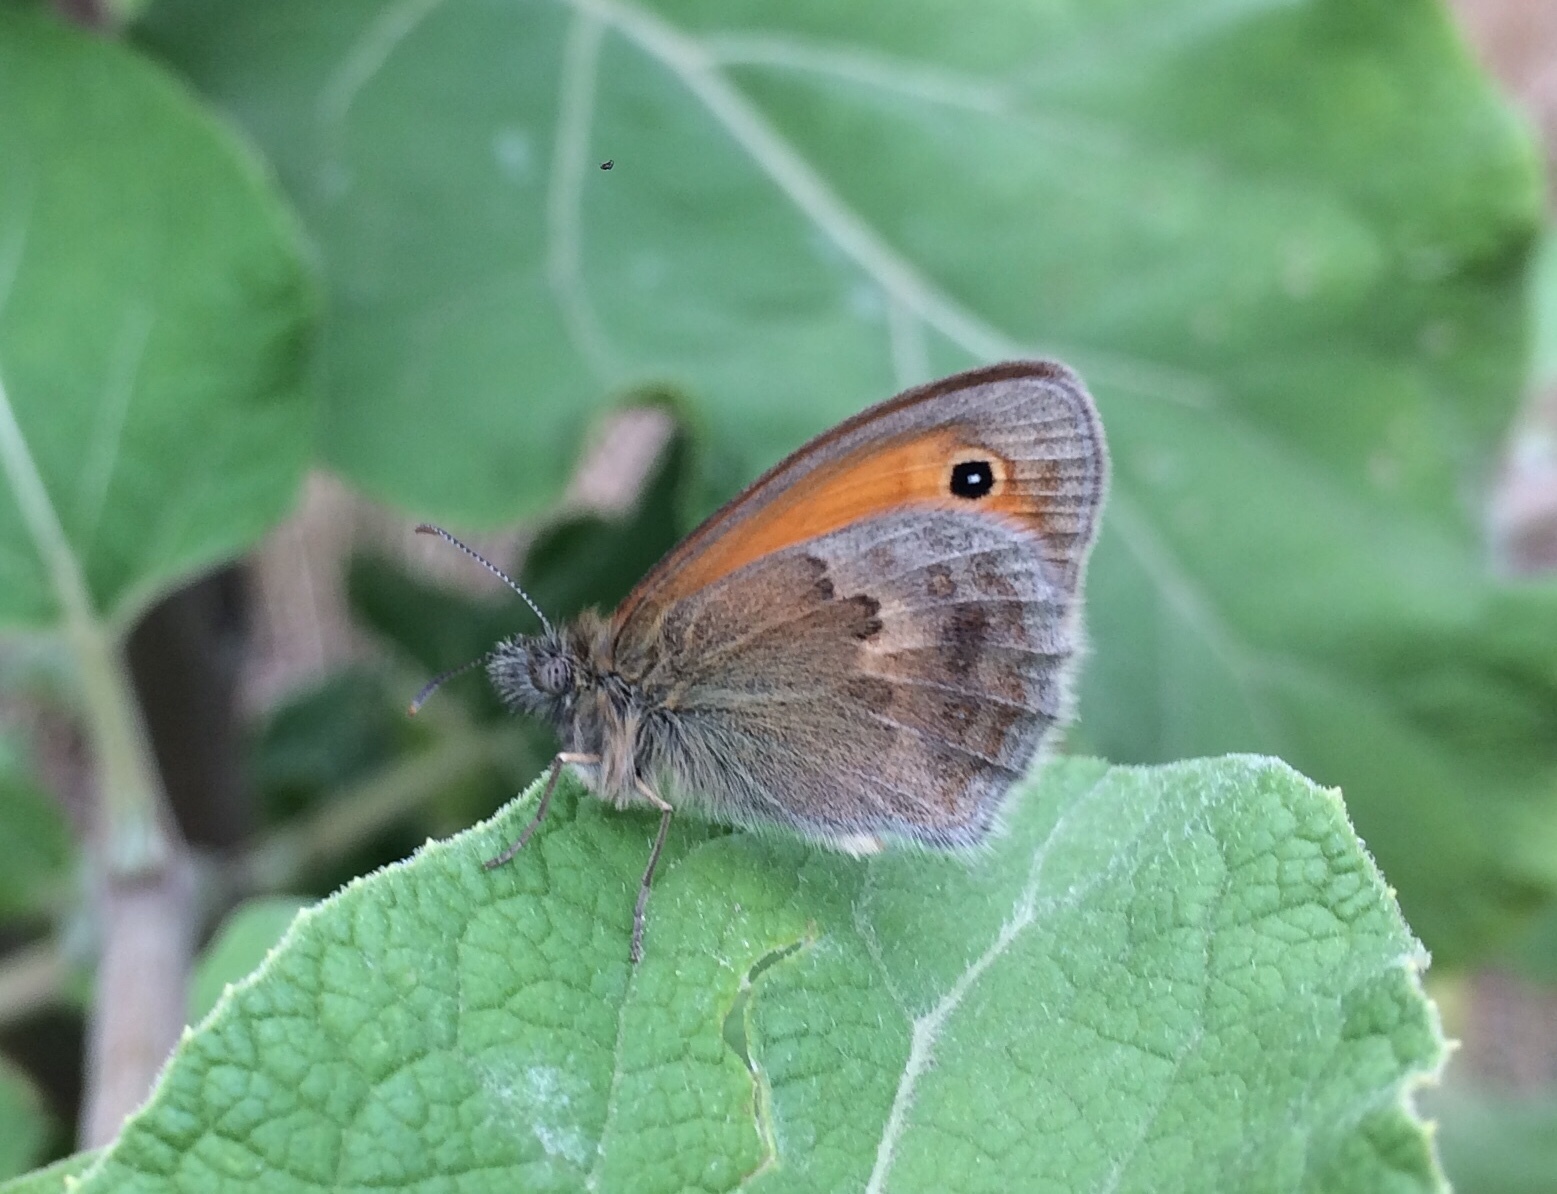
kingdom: Animalia
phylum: Arthropoda
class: Insecta
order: Lepidoptera
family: Nymphalidae
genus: Coenonympha
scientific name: Coenonympha pamphilus
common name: Small heath
